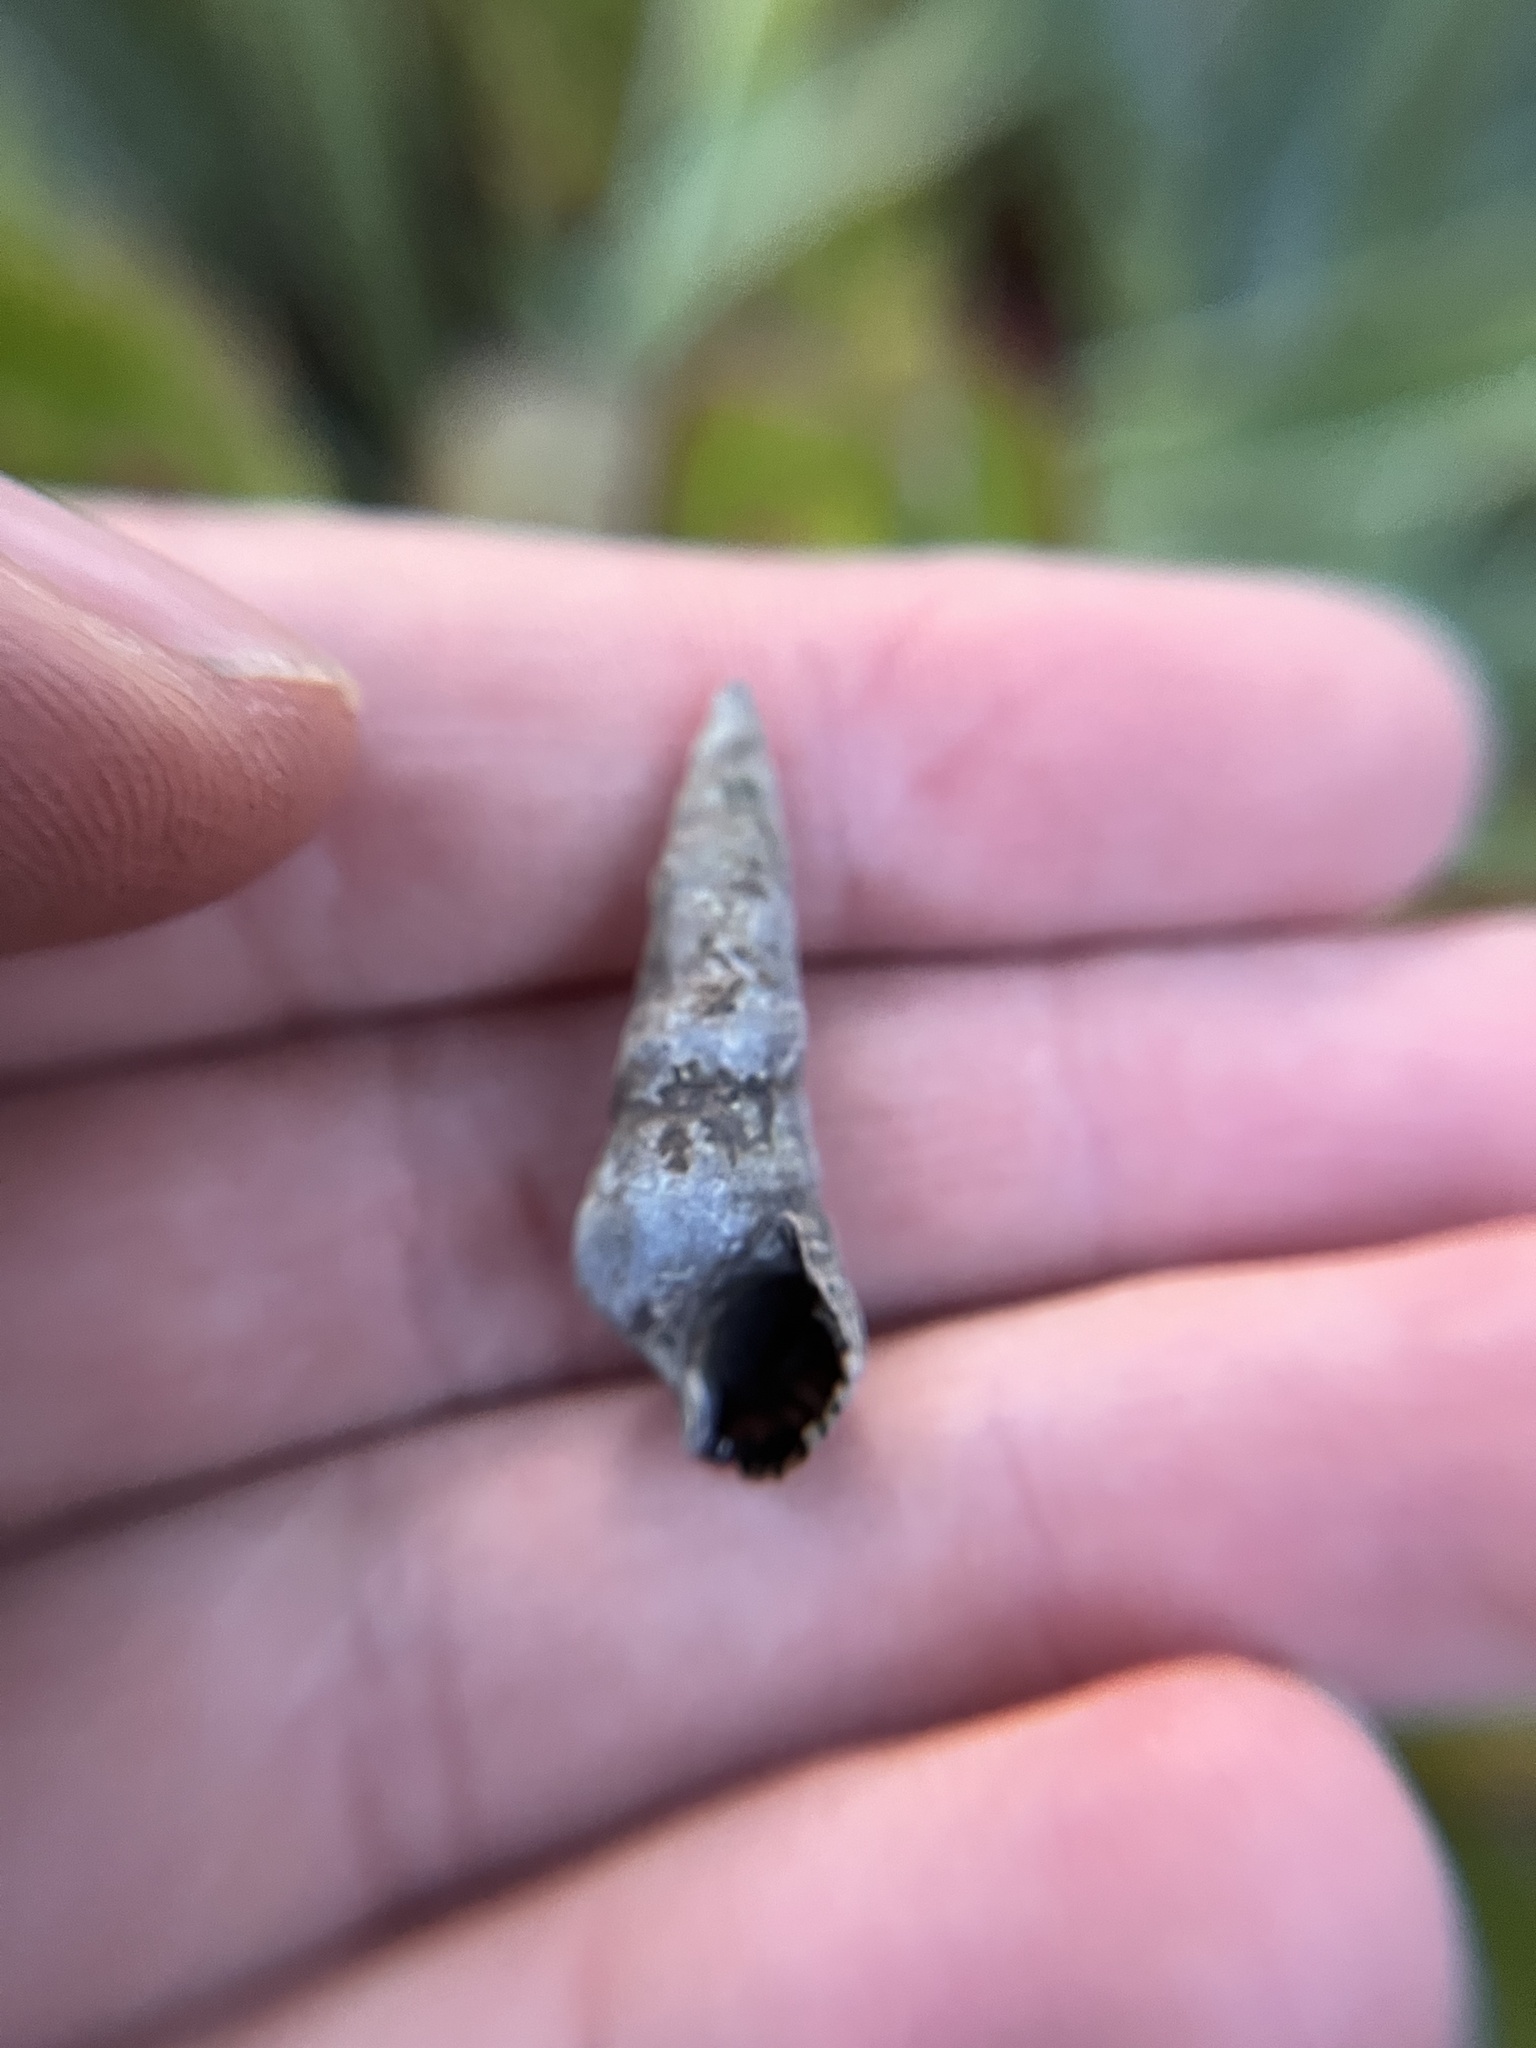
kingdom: Animalia
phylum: Mollusca
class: Gastropoda
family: Batillariidae
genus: Batillaria
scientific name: Batillaria attramentaria
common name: Japanese false cerith
